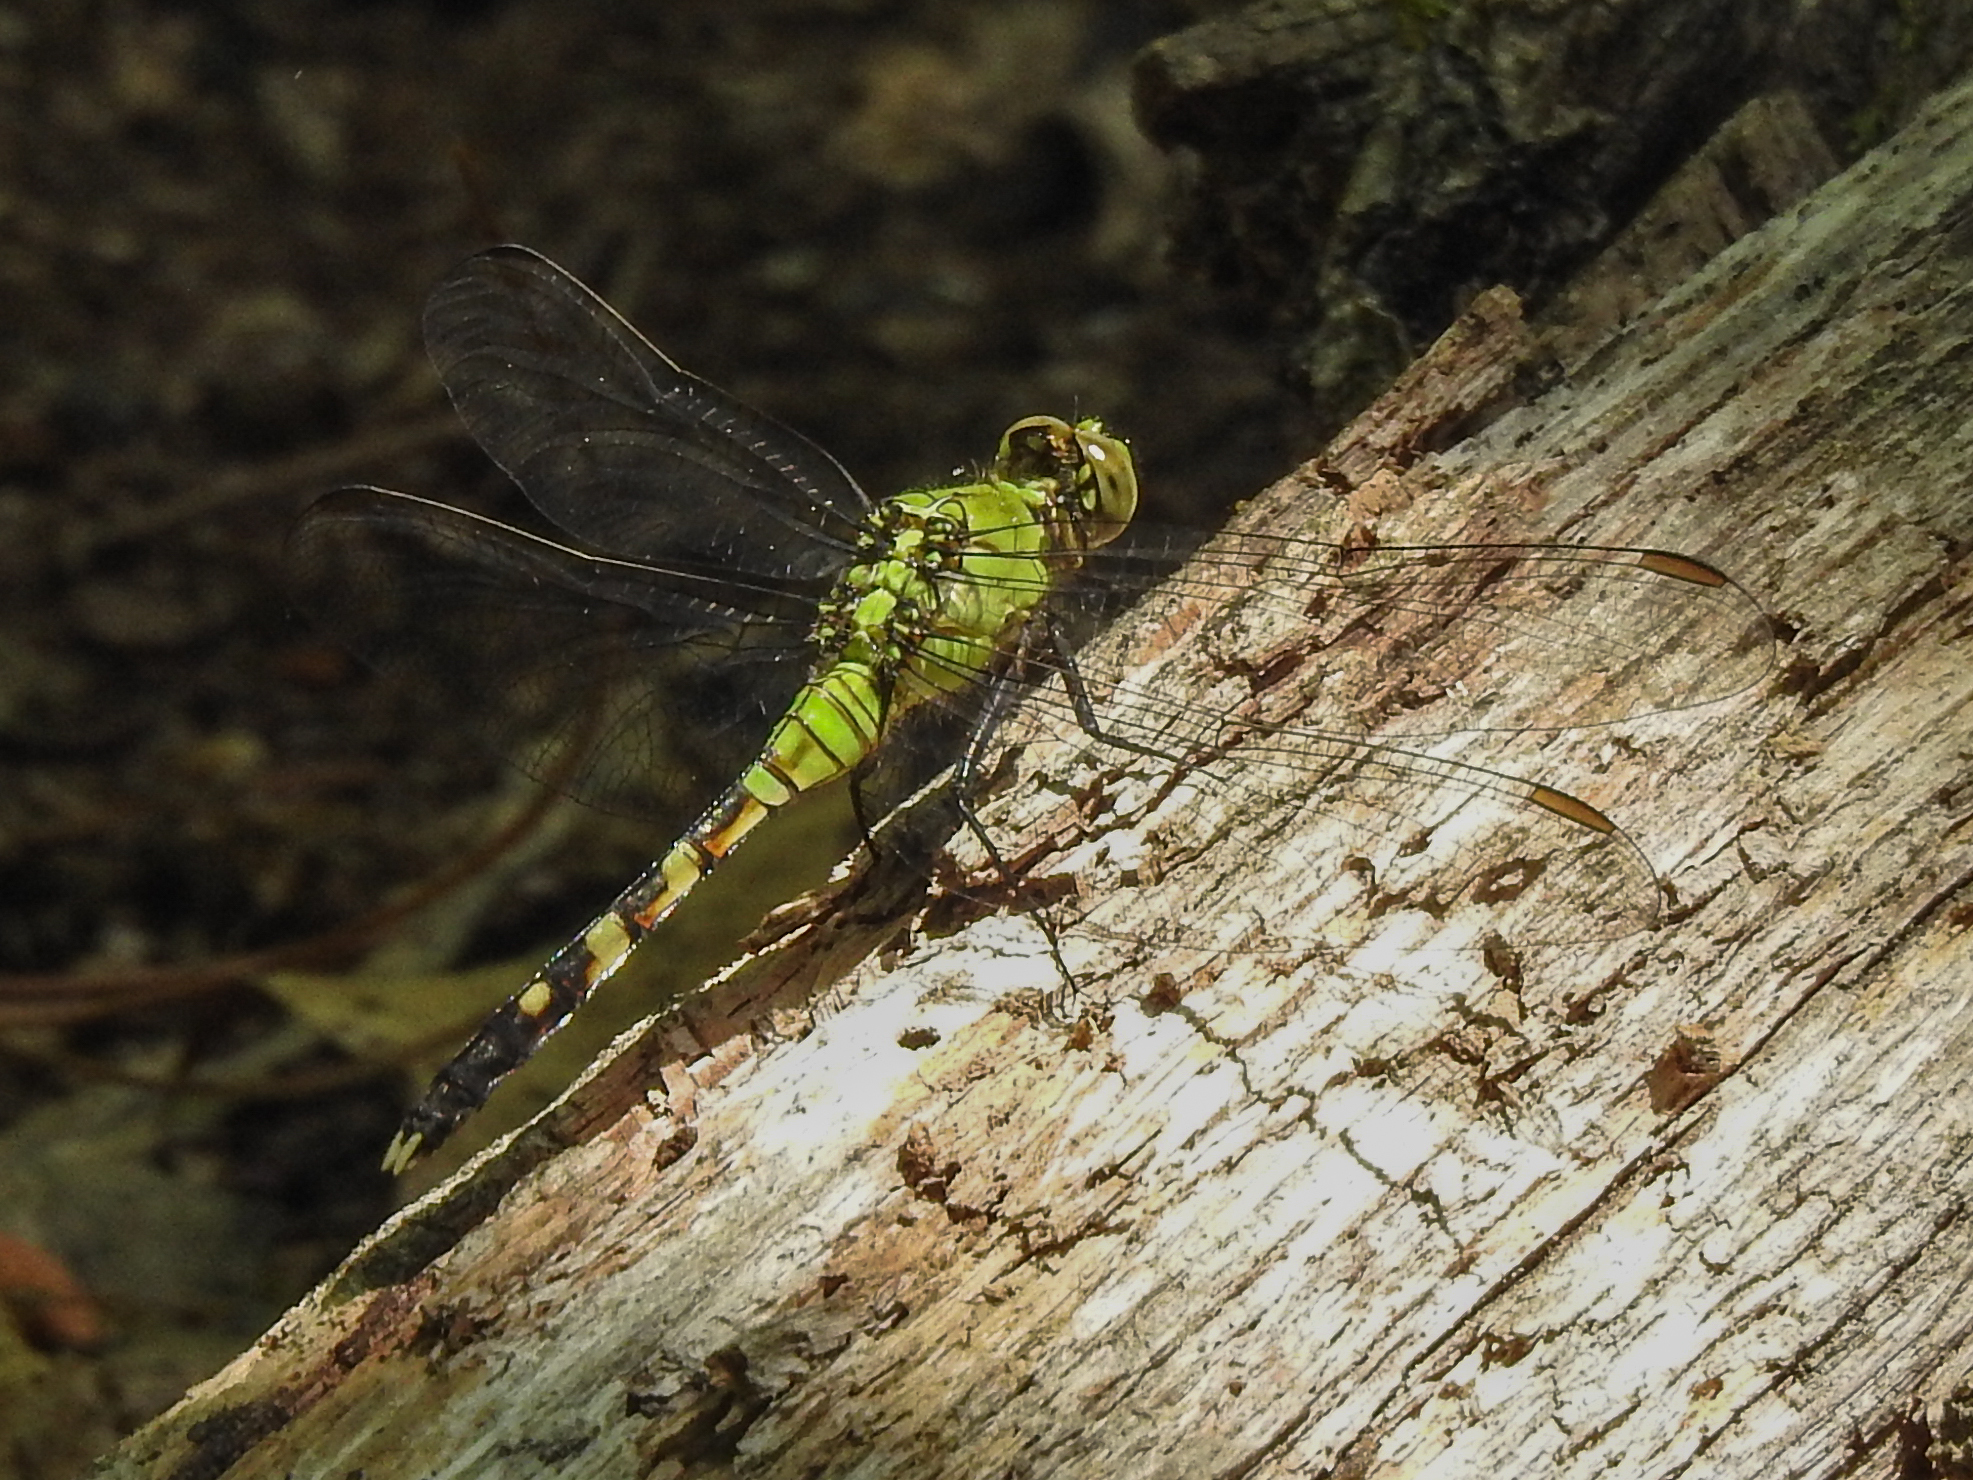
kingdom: Animalia
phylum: Arthropoda
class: Insecta
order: Odonata
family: Libellulidae
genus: Erythemis
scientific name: Erythemis simplicicollis
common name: Eastern pondhawk
